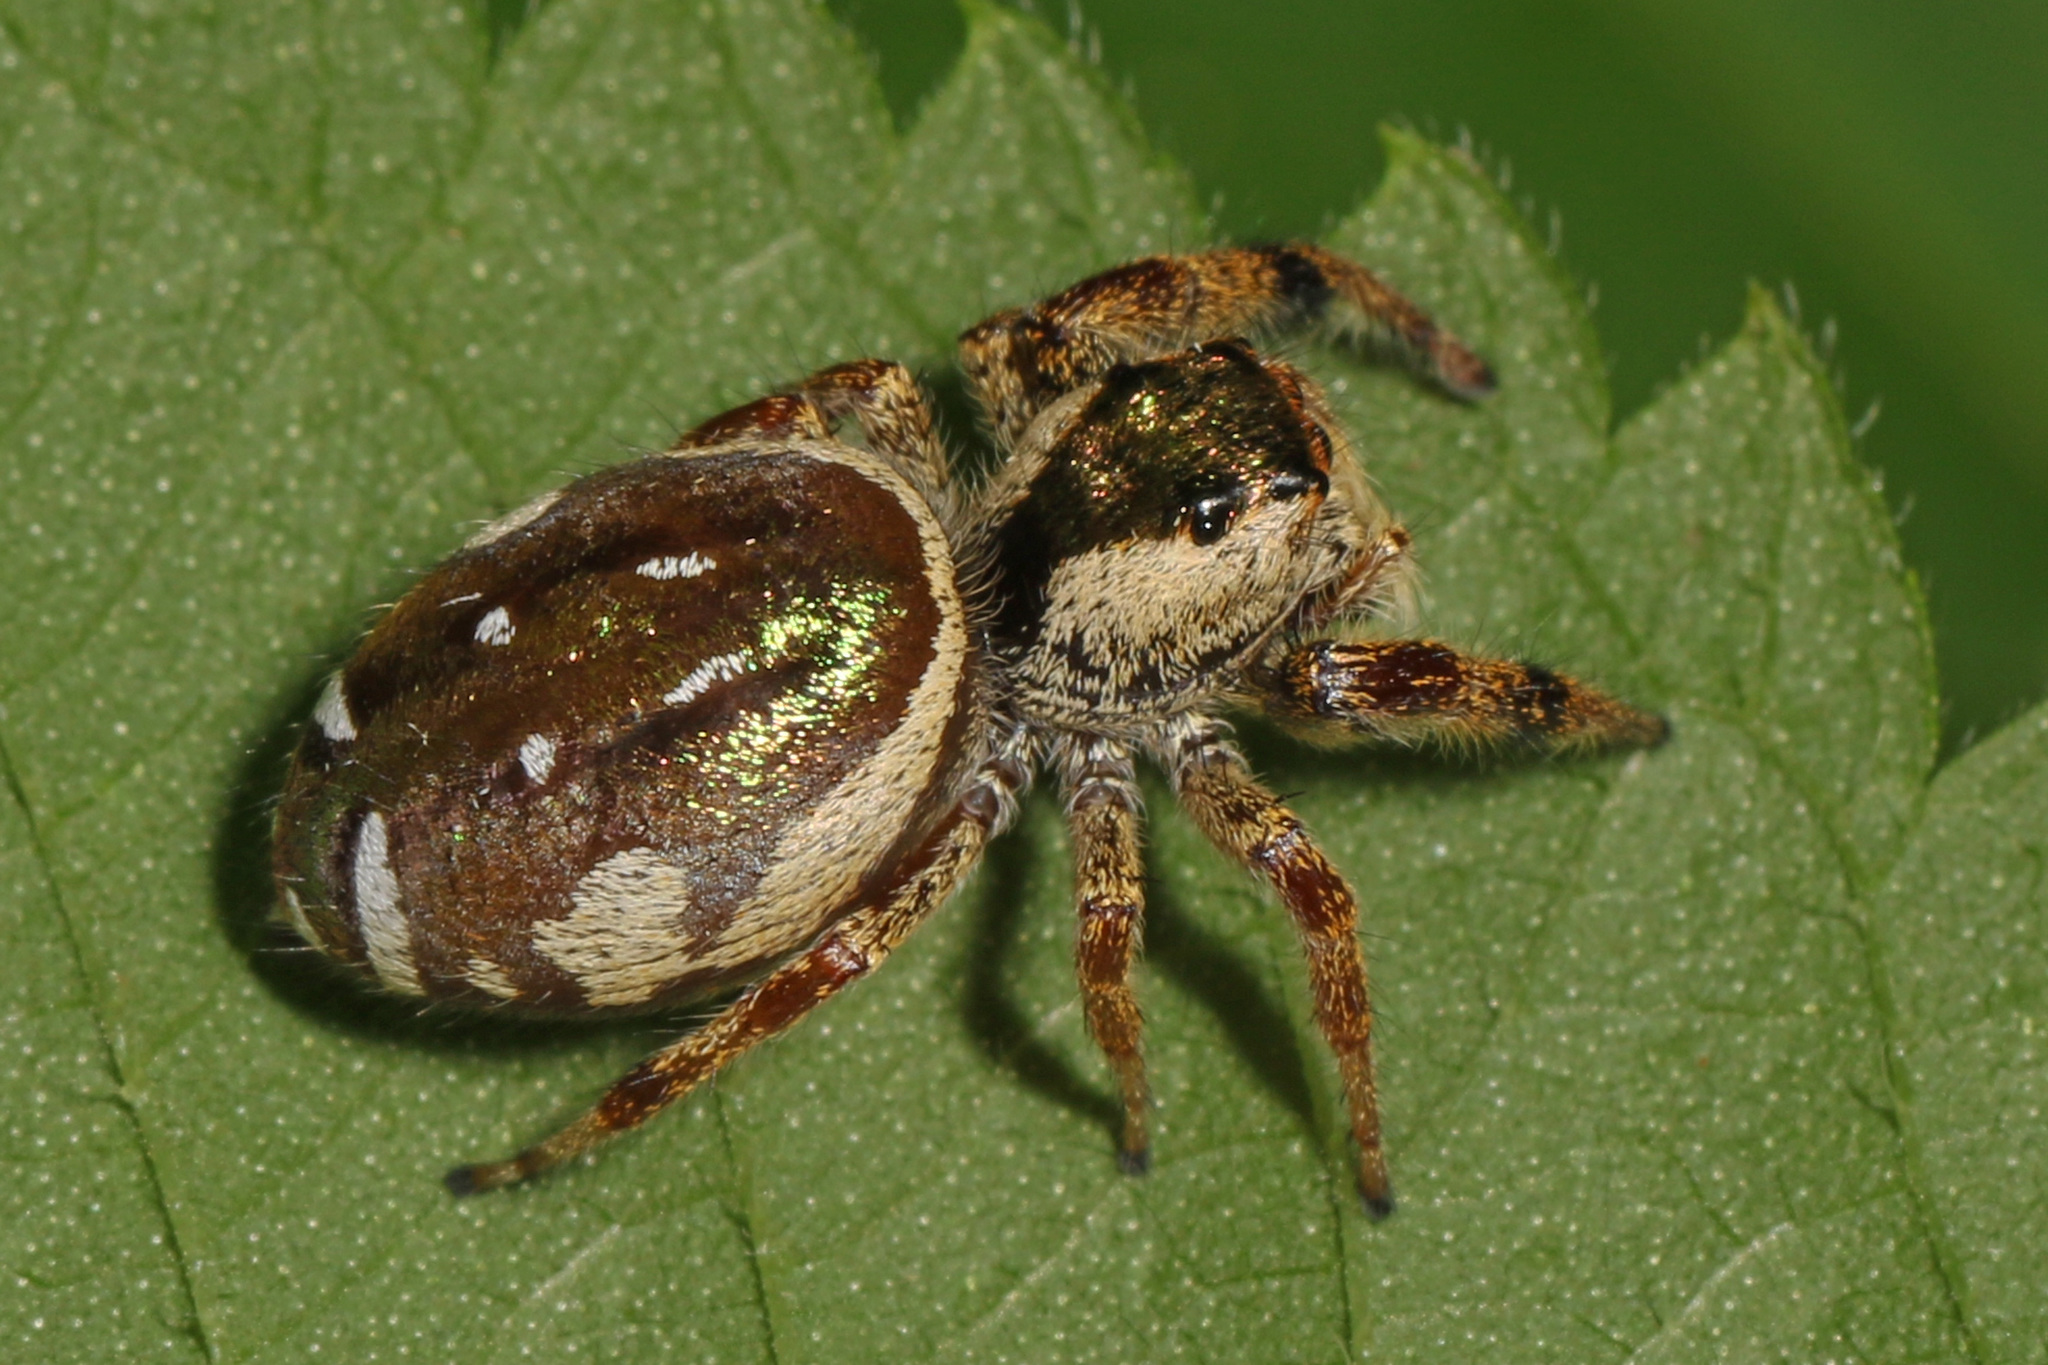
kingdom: Animalia
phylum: Arthropoda
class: Arachnida
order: Araneae
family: Salticidae
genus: Paraphidippus
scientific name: Paraphidippus aurantius
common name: Jumping spiders
